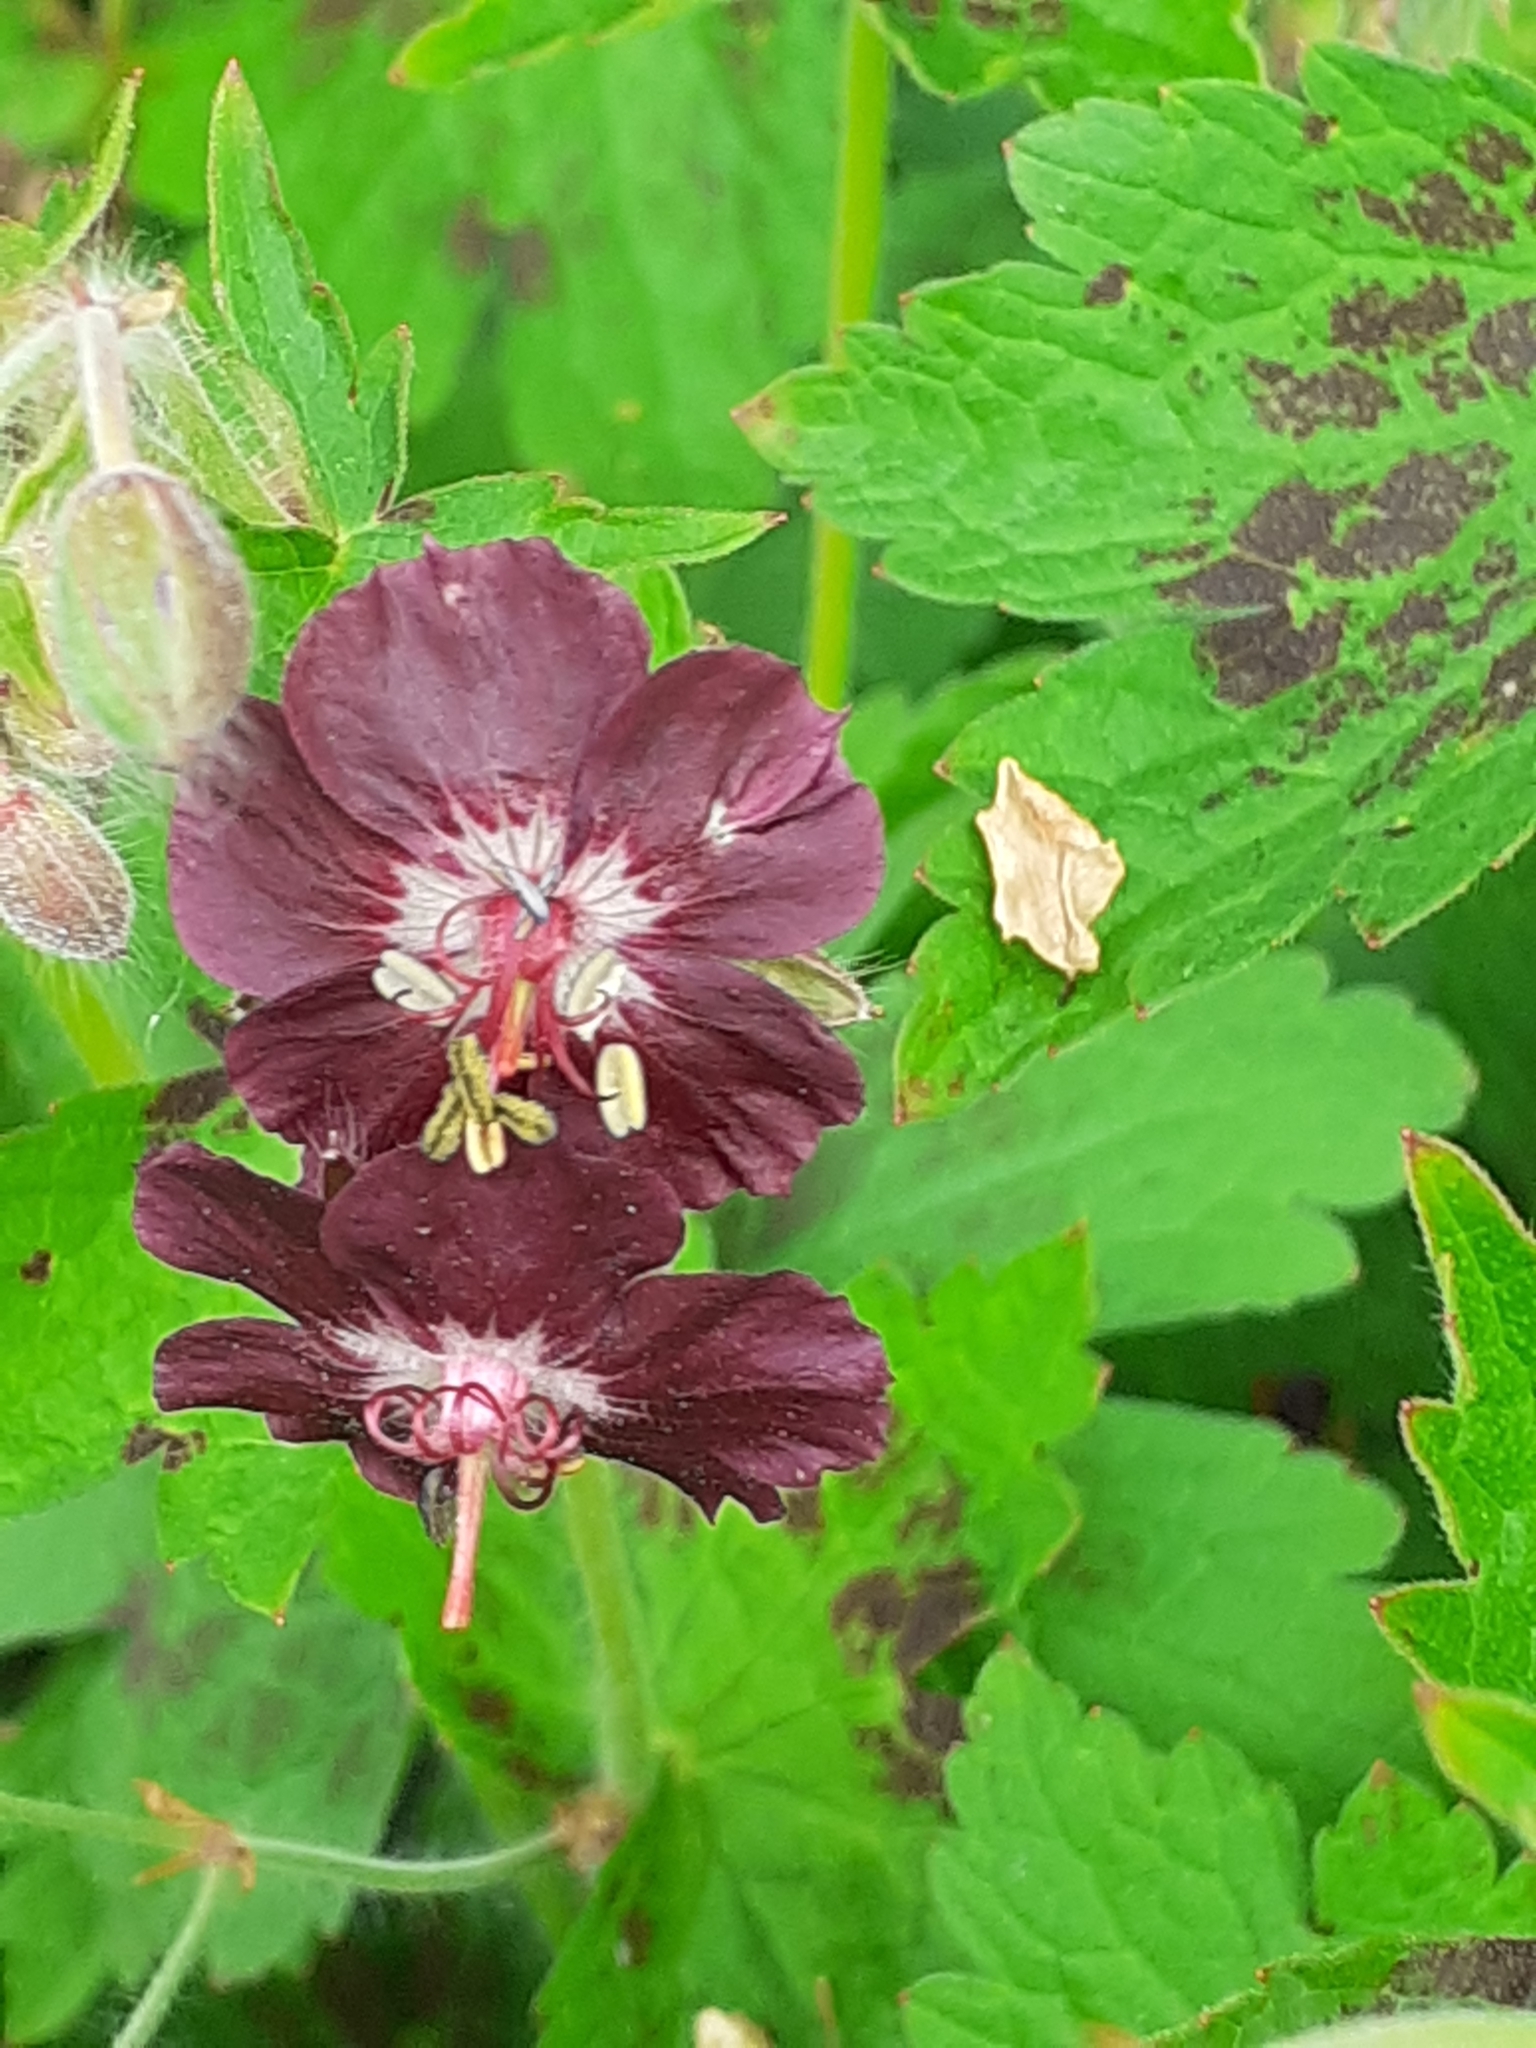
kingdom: Plantae
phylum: Tracheophyta
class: Magnoliopsida
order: Geraniales
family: Geraniaceae
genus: Geranium
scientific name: Geranium phaeum
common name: Dusky crane's-bill
